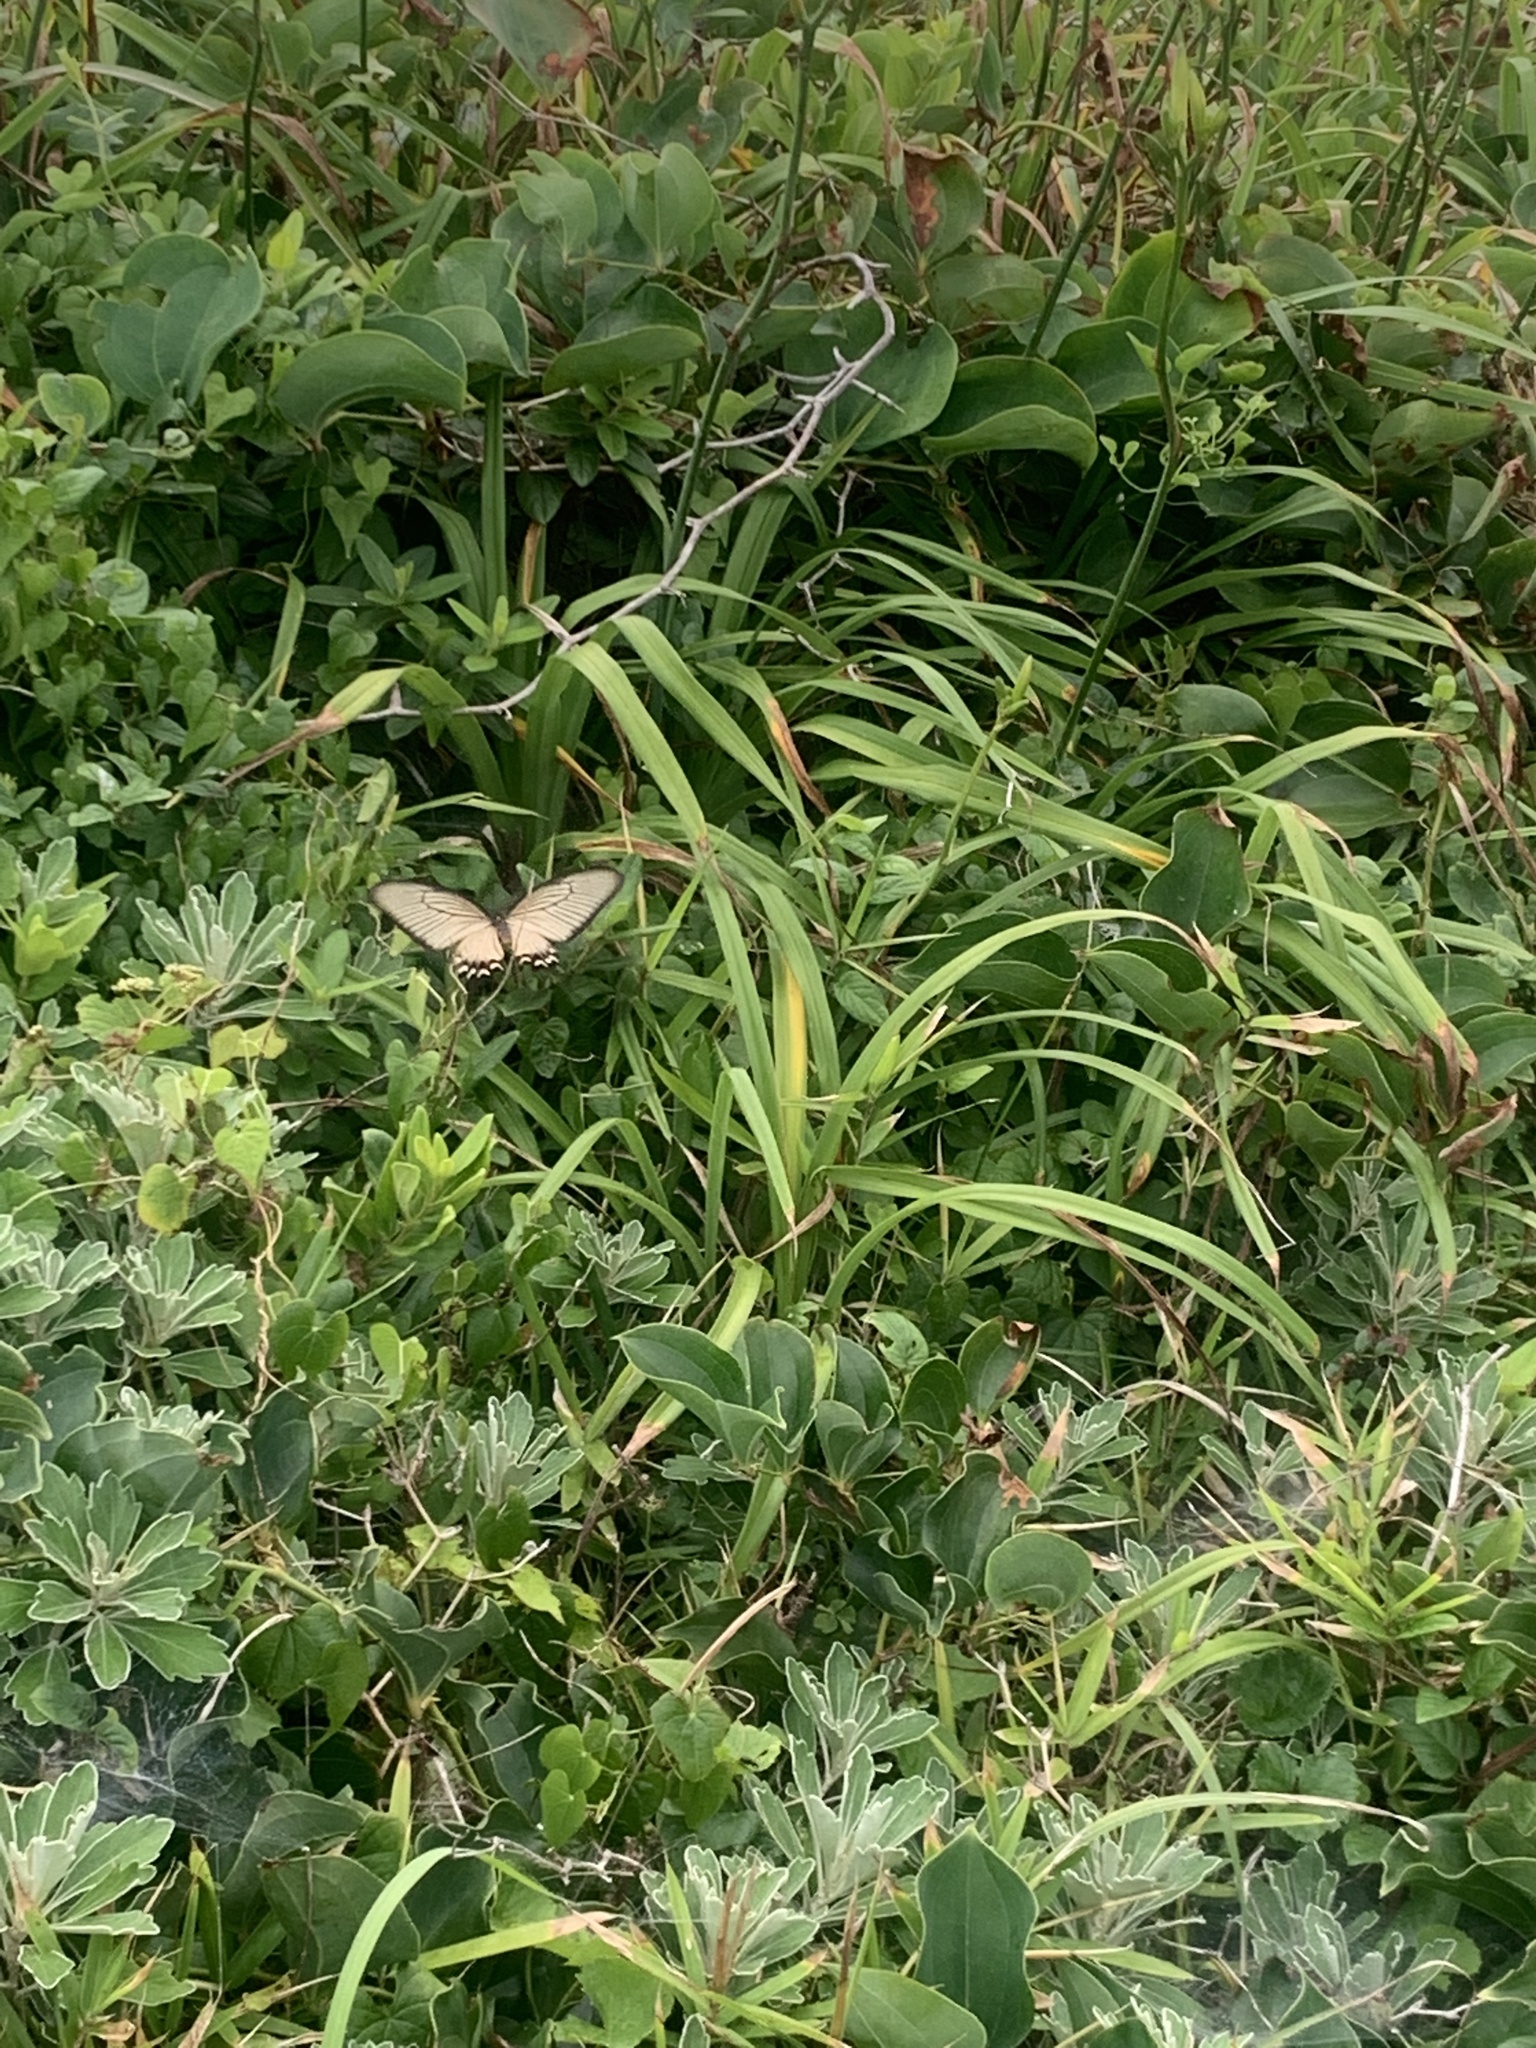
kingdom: Animalia
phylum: Arthropoda
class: Insecta
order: Lepidoptera
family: Papilionidae
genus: Byasa
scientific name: Byasa alcinous
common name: Chinese windmill
